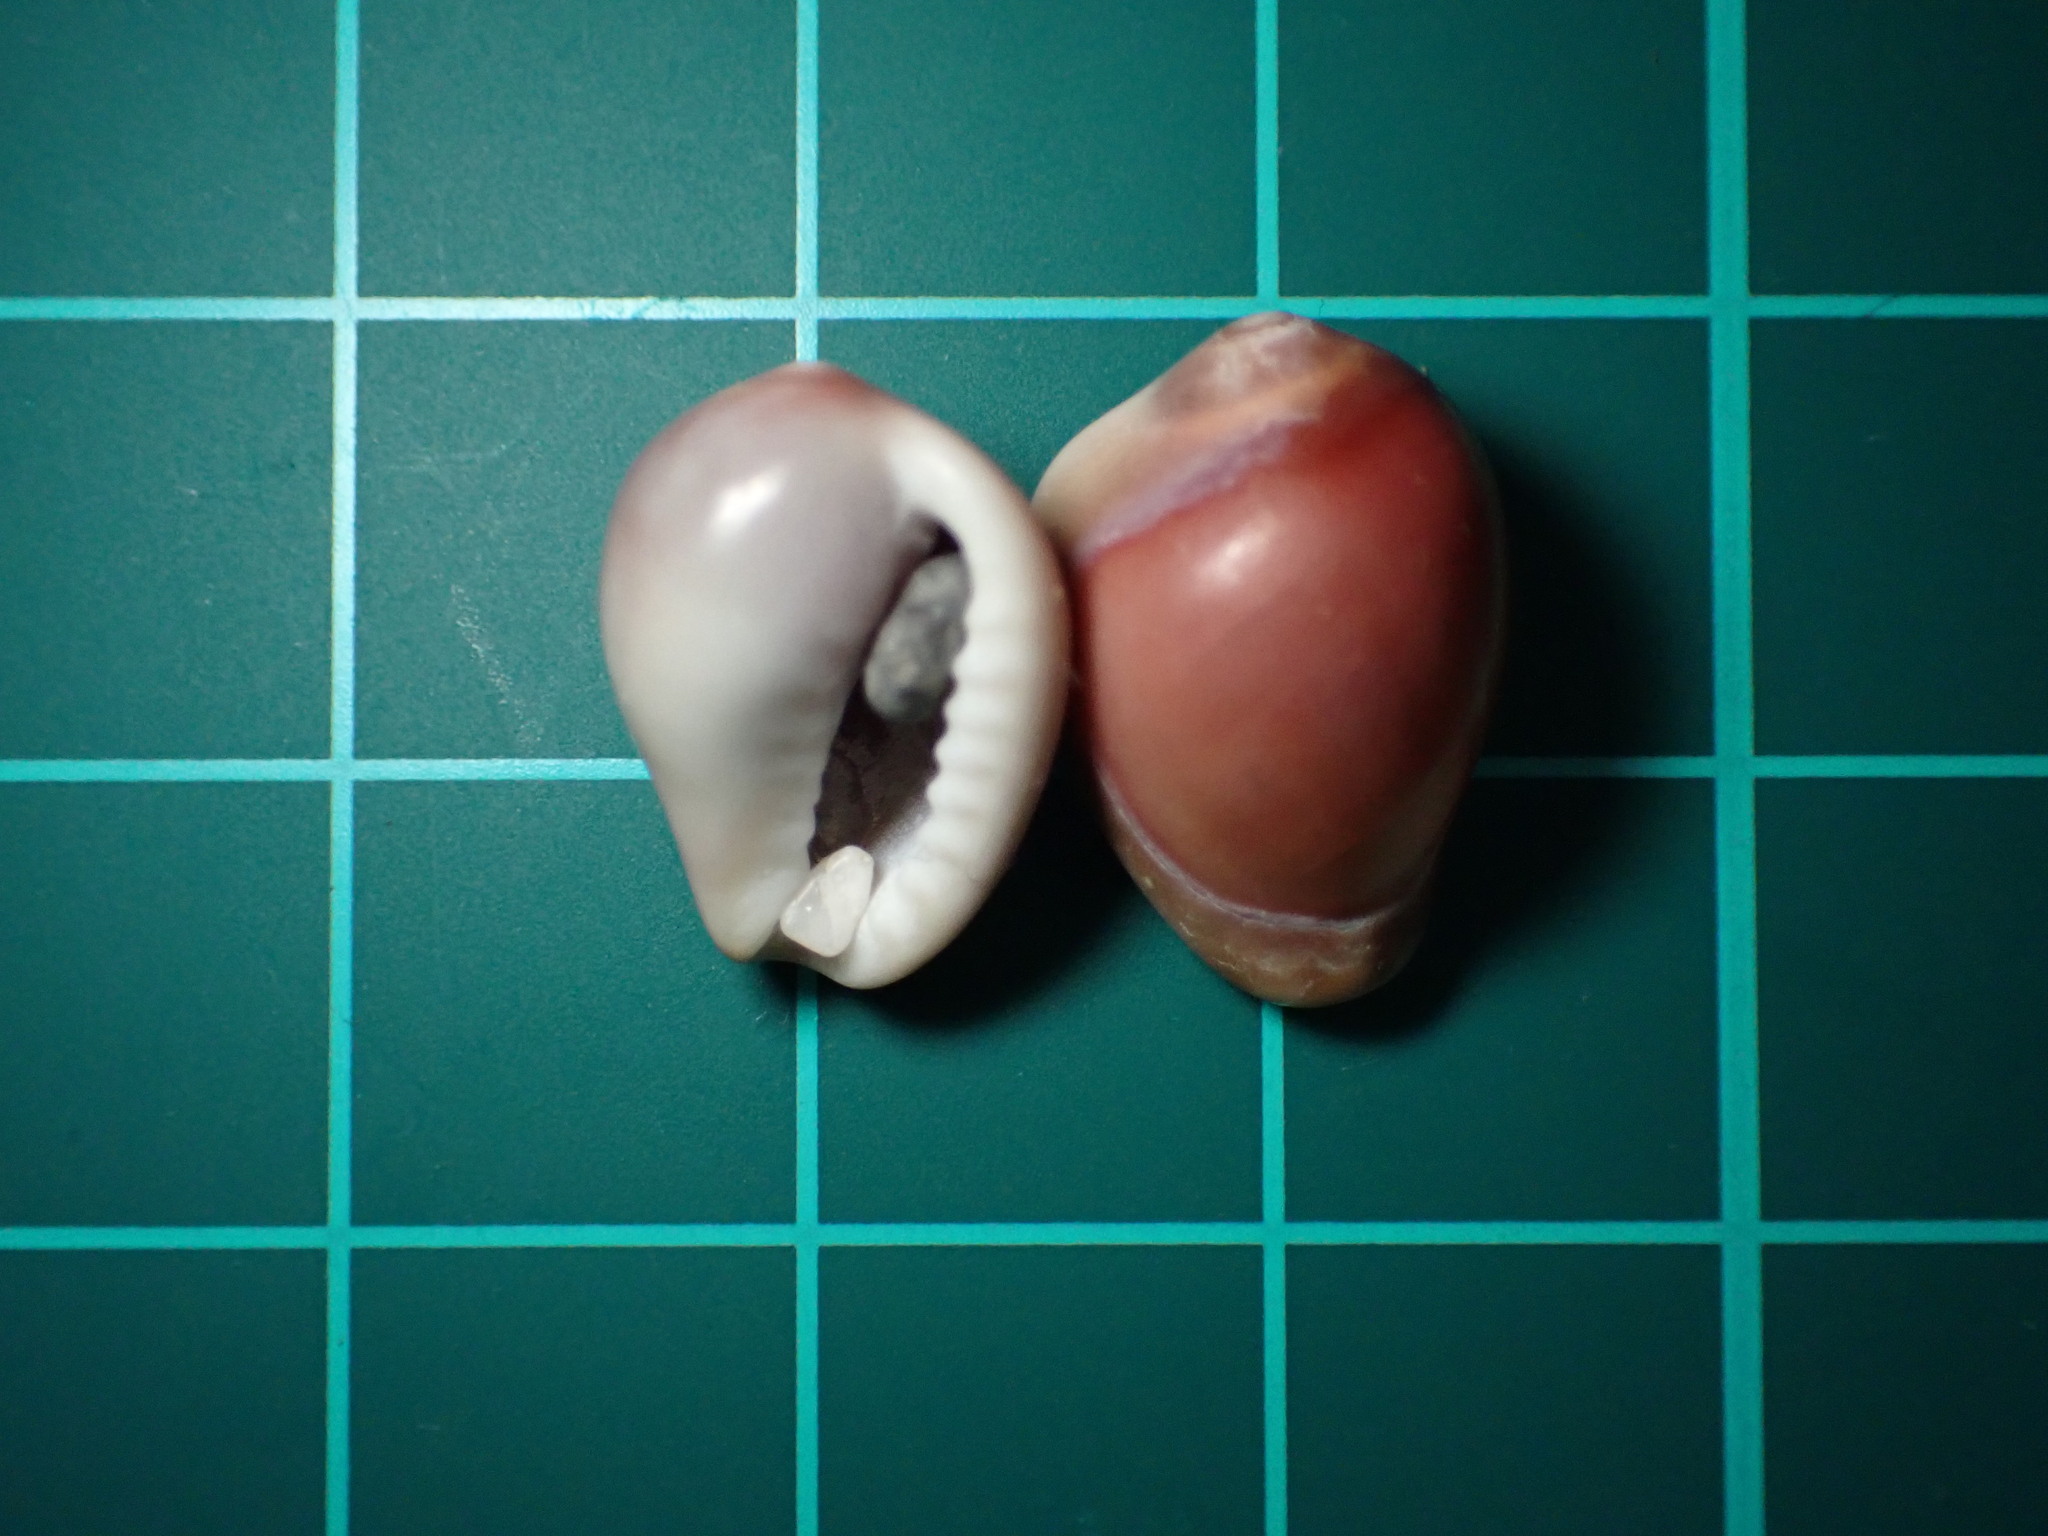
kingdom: Animalia
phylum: Mollusca
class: Gastropoda
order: Littorinimorpha
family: Eratoidae
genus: Hespererato
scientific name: Hespererato vitellina
